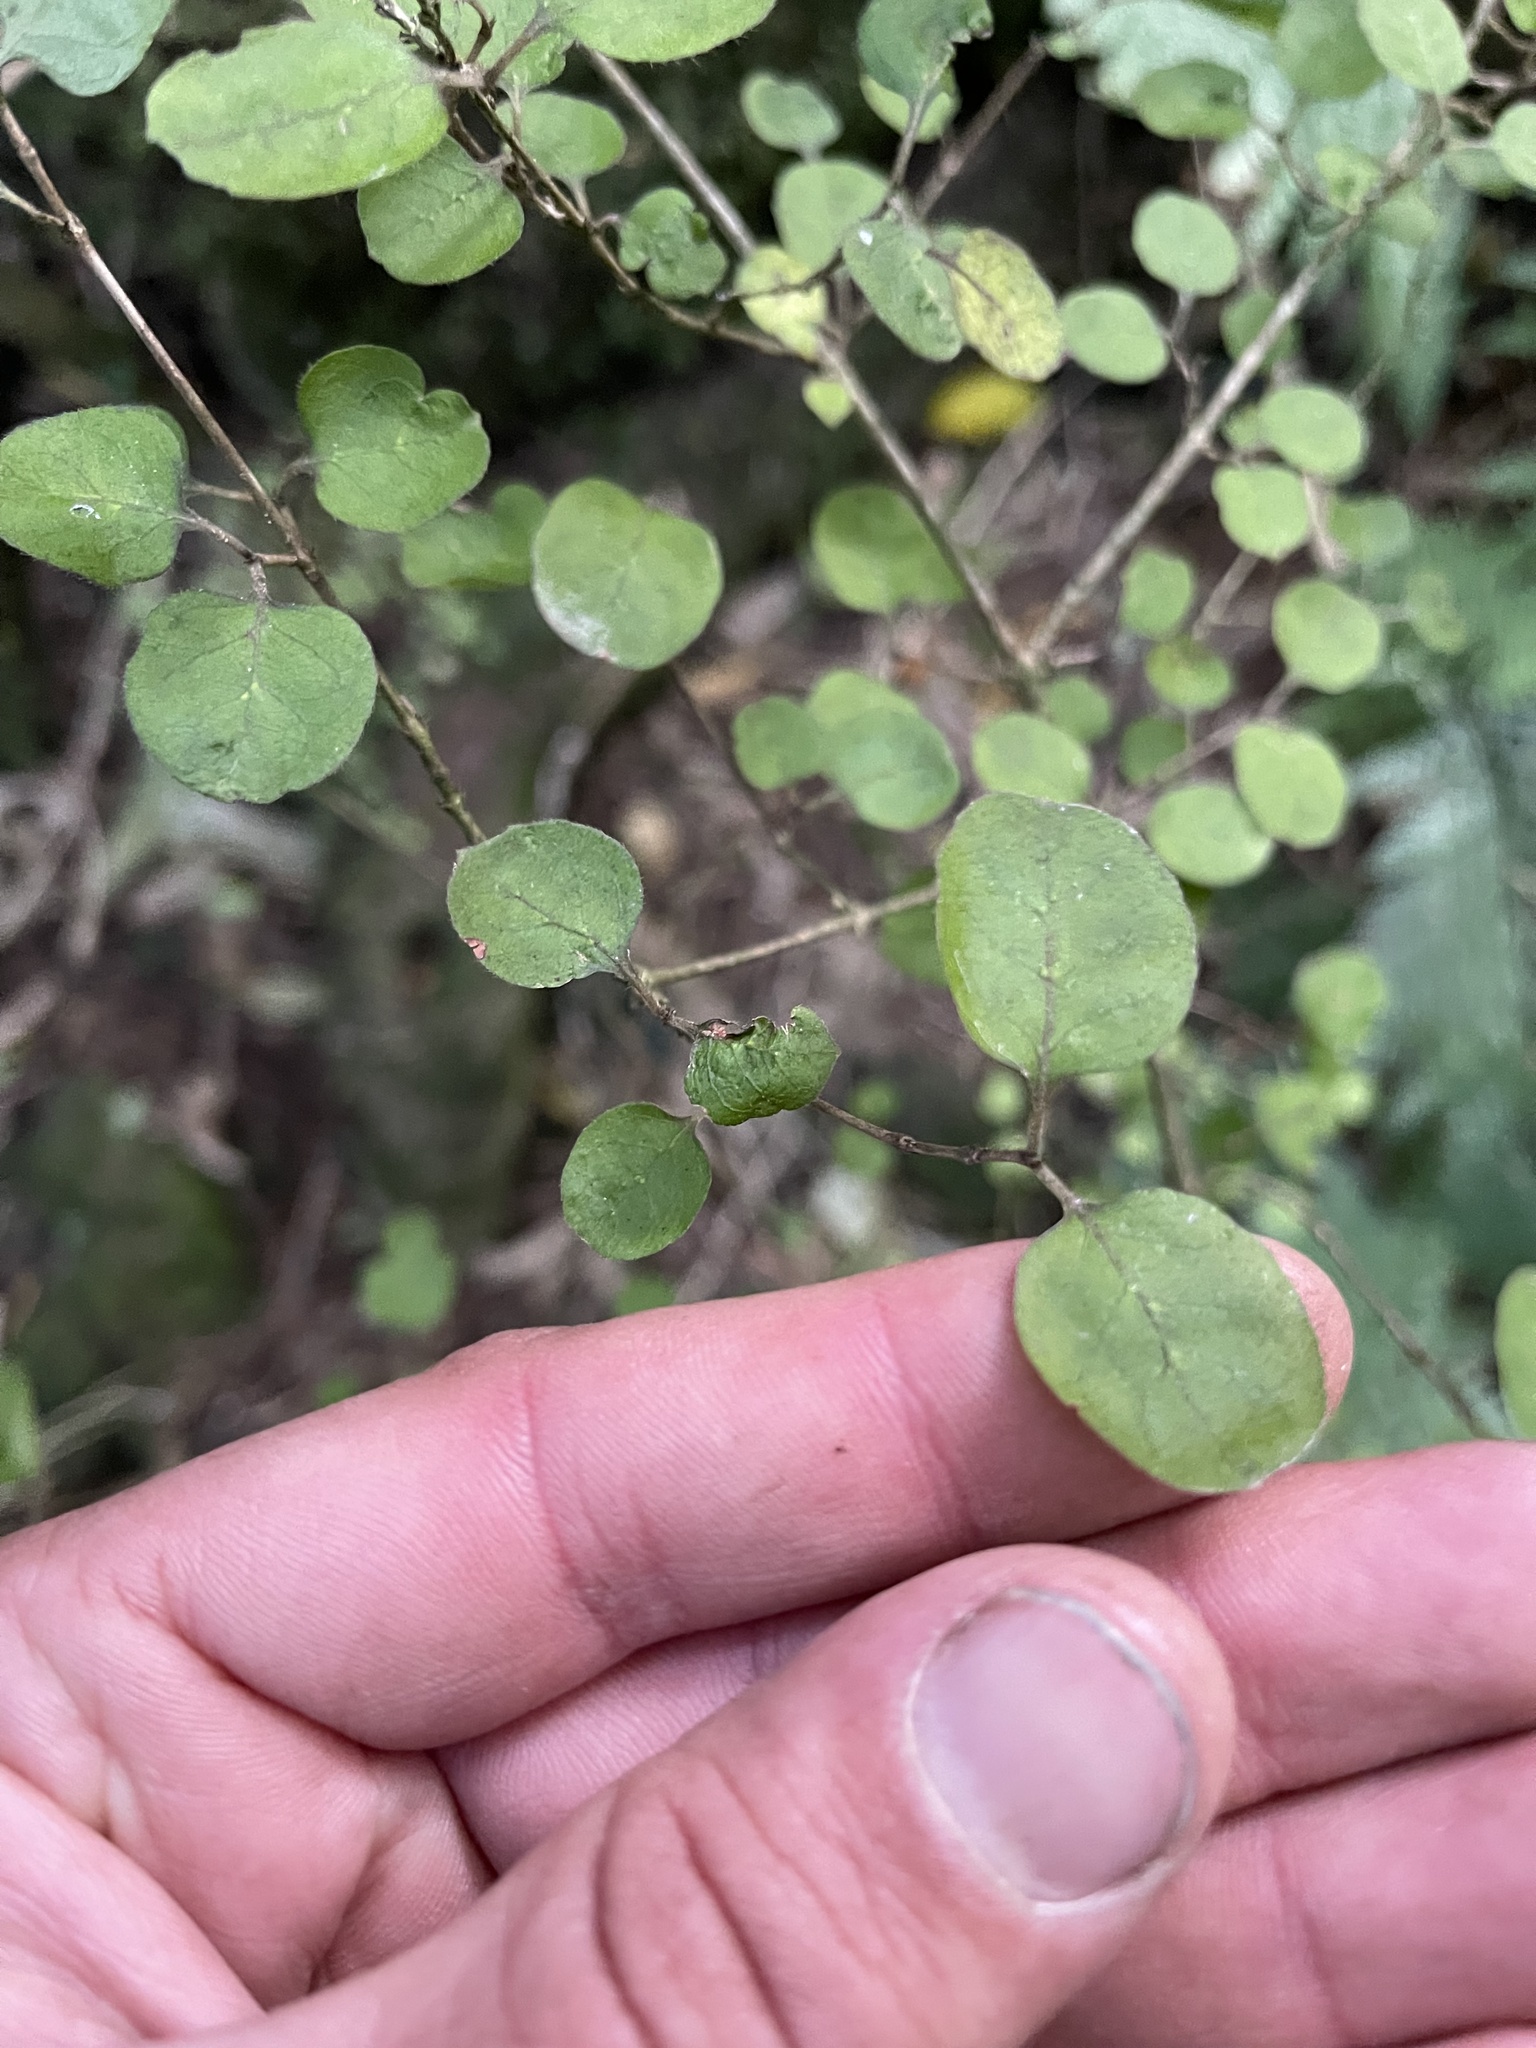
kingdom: Plantae
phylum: Tracheophyta
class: Magnoliopsida
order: Gentianales
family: Rubiaceae
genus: Coprosma
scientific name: Coprosma rotundifolia
